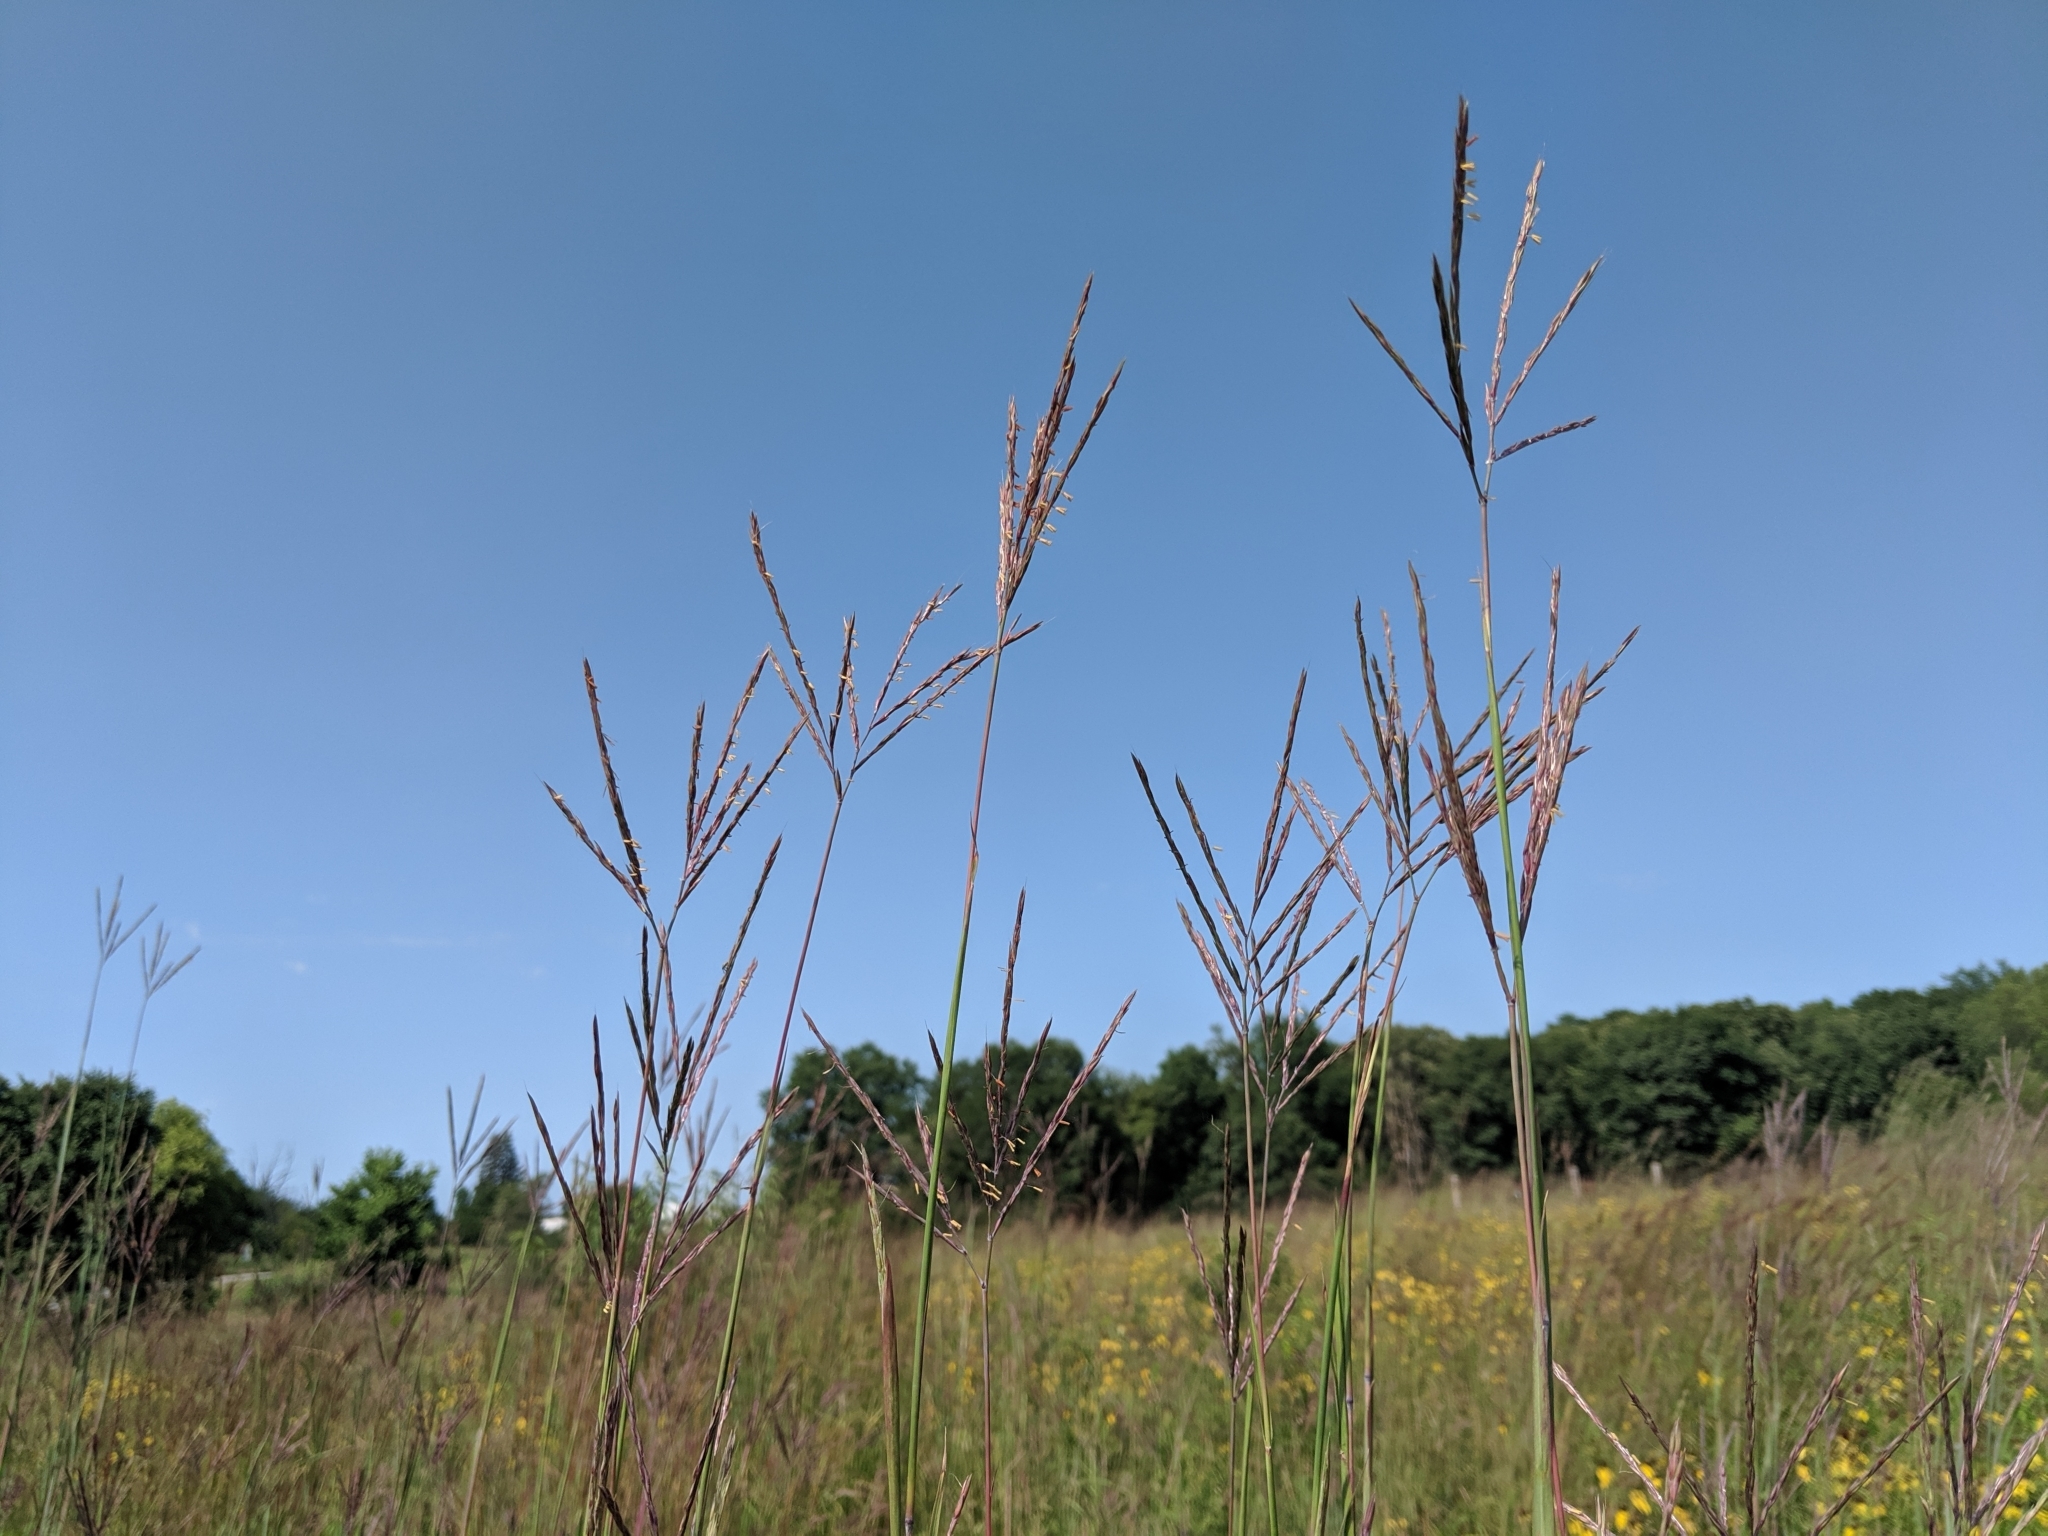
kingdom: Plantae
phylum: Tracheophyta
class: Liliopsida
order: Poales
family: Poaceae
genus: Andropogon
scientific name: Andropogon gerardi
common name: Big bluestem
